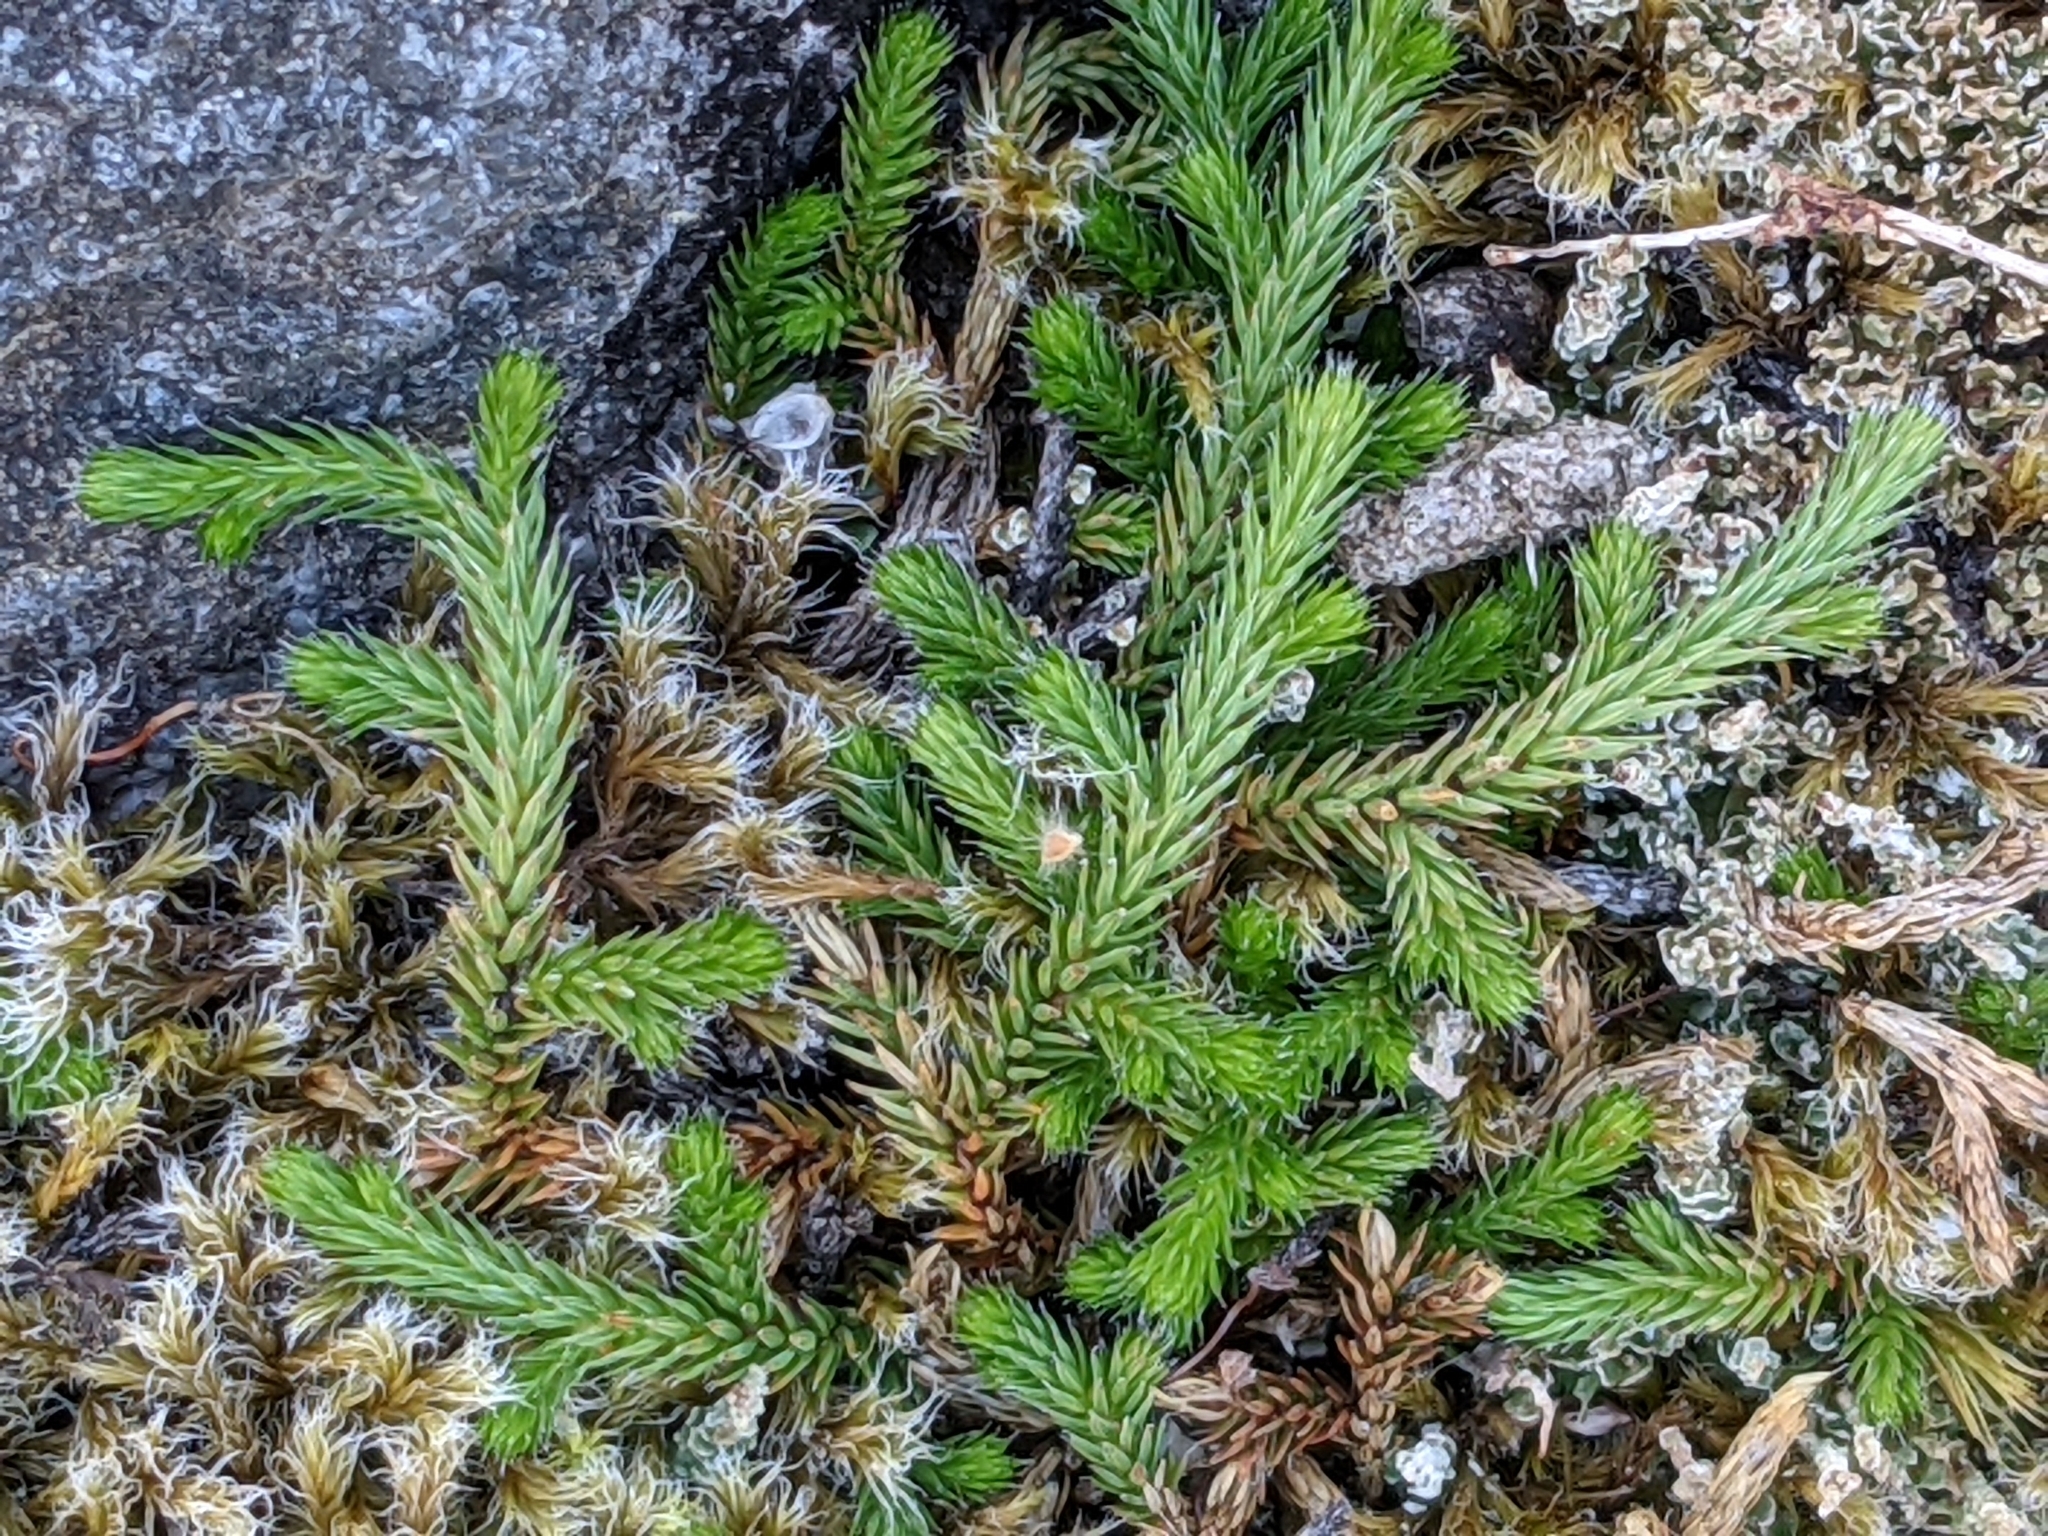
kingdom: Plantae
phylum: Tracheophyta
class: Lycopodiopsida
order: Selaginellales
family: Selaginellaceae
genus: Selaginella
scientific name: Selaginella wallacei
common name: Wallace's selaginella
